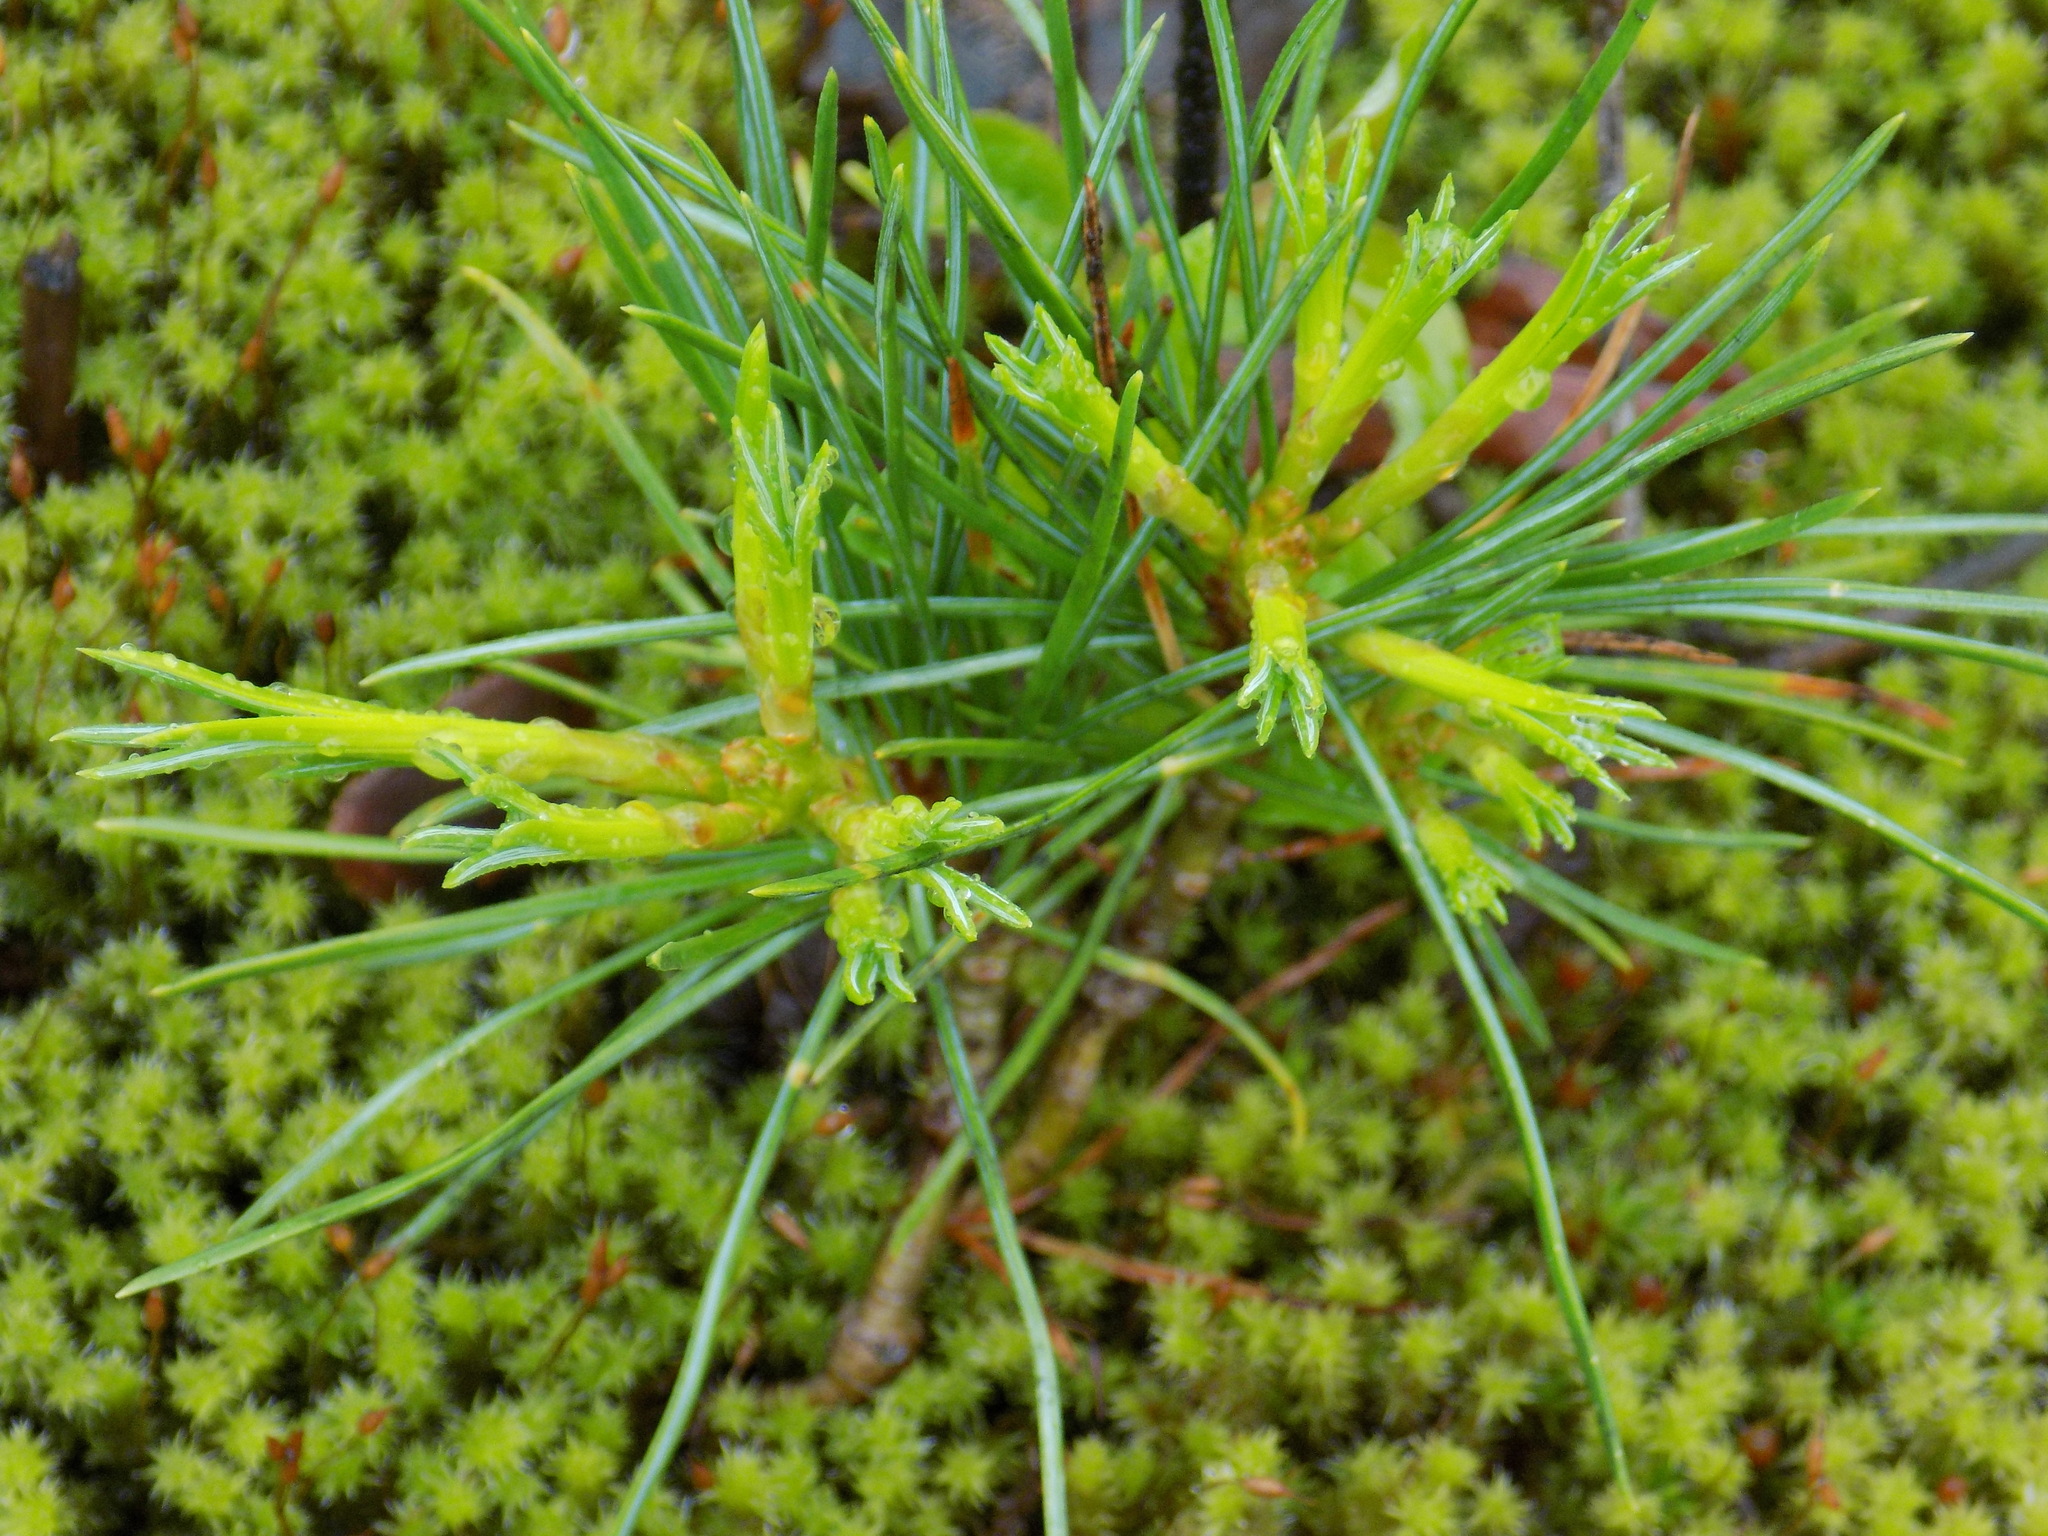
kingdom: Plantae
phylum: Tracheophyta
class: Pinopsida
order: Pinales
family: Pinaceae
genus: Pinus
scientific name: Pinus sylvestris
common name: Scots pine
